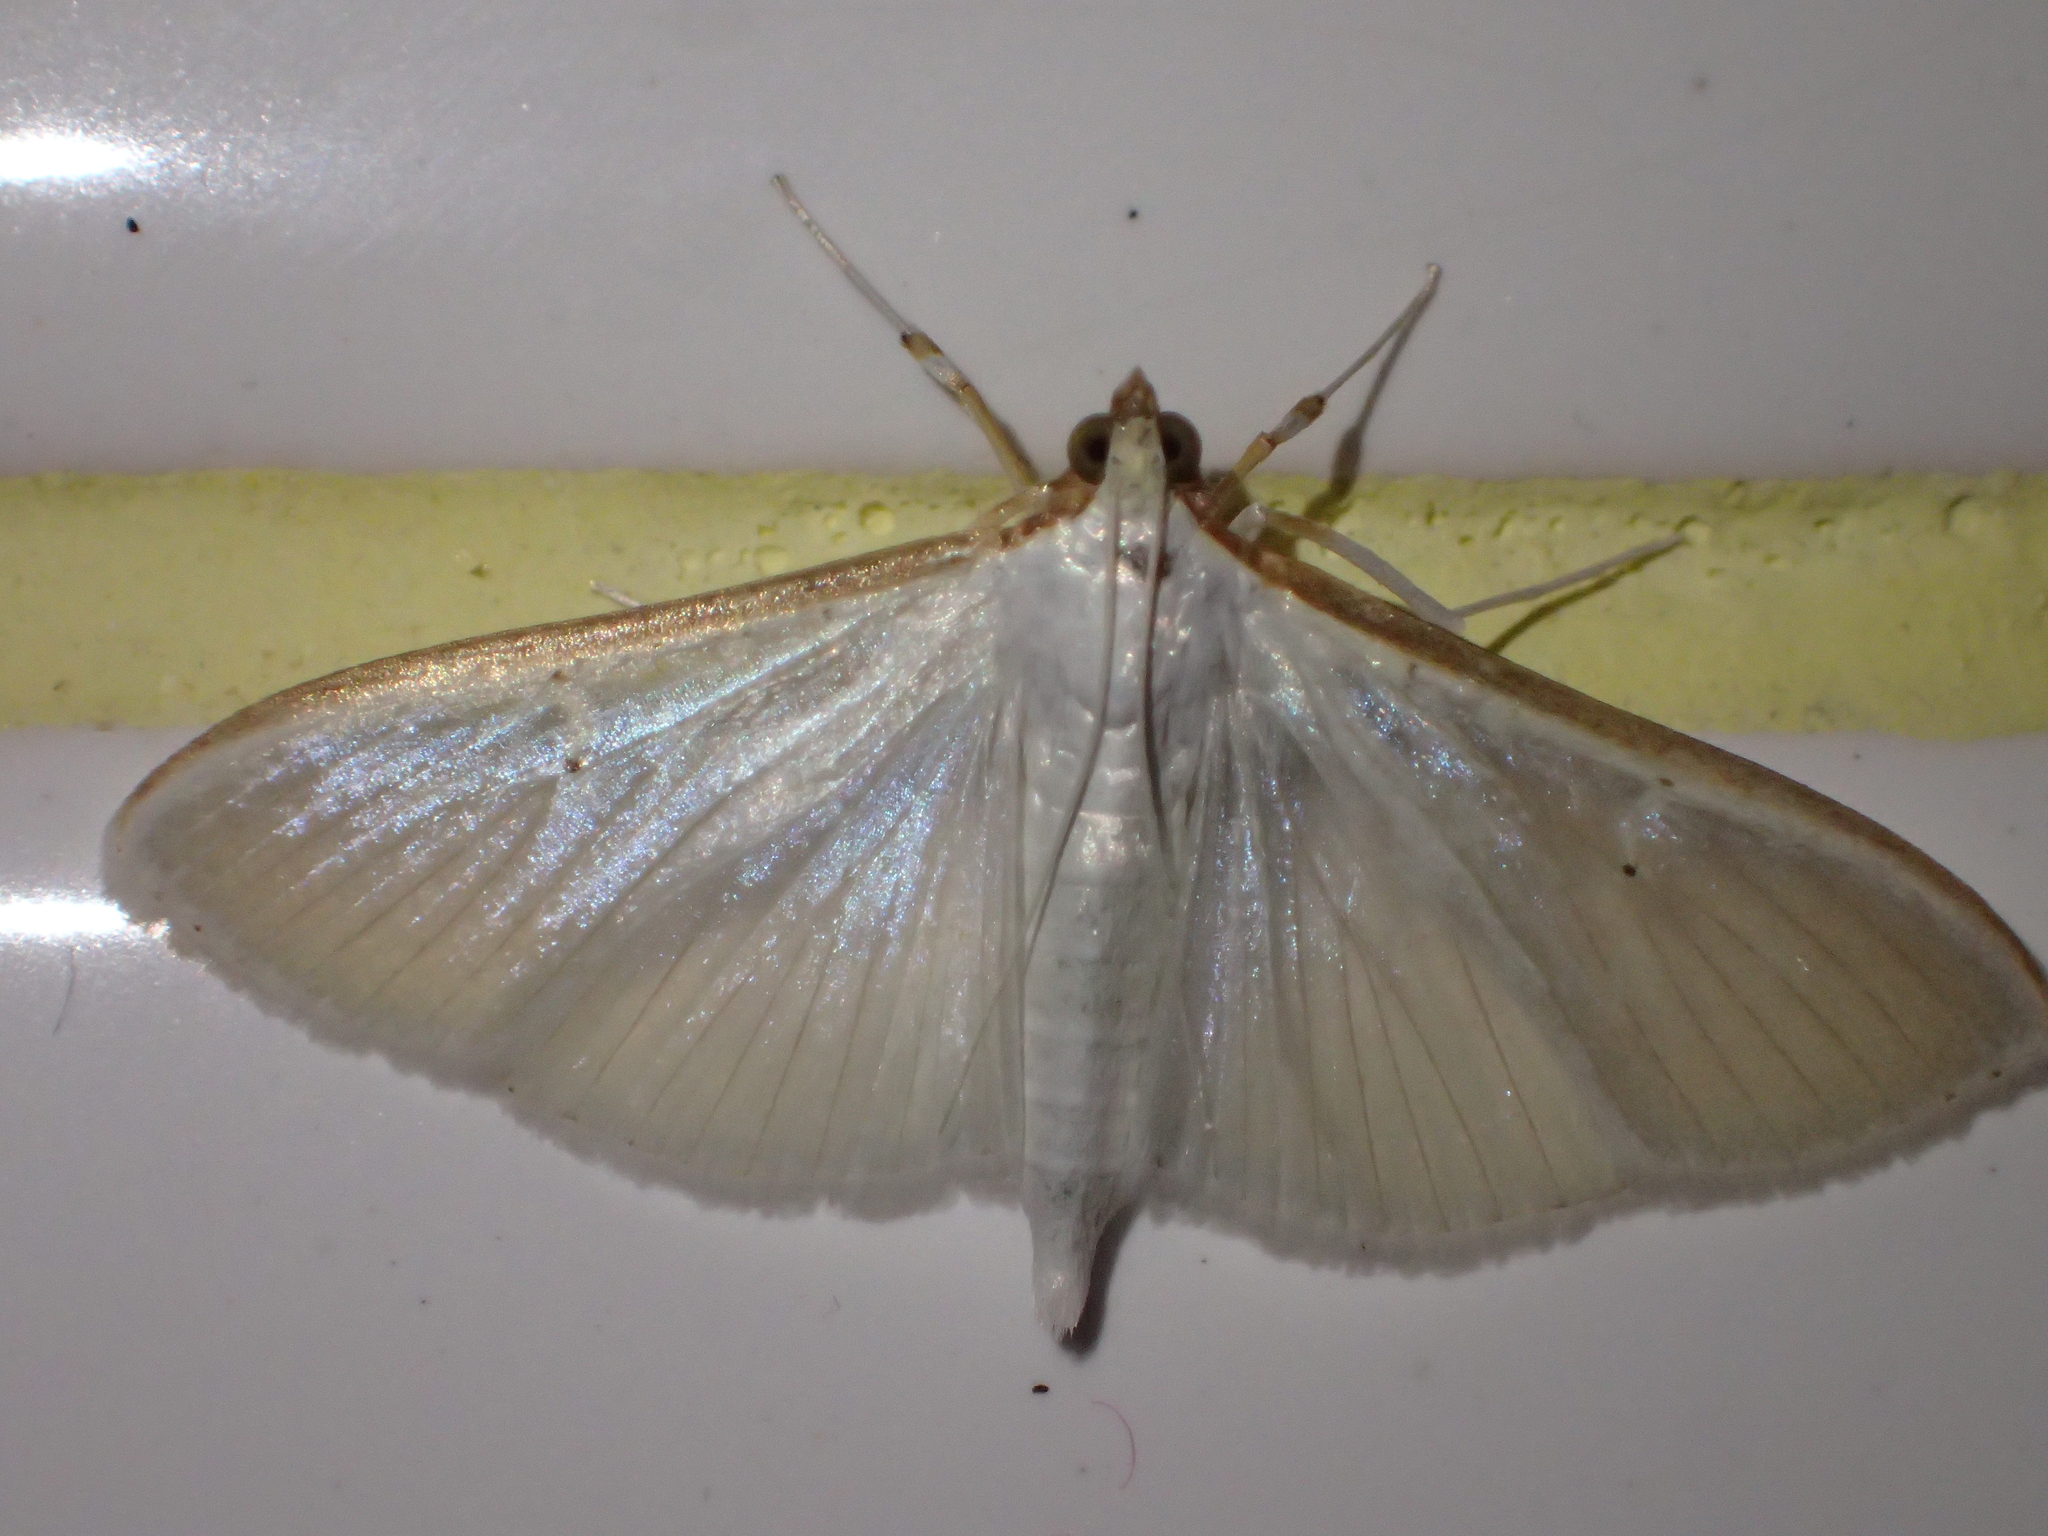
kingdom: Animalia
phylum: Arthropoda
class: Insecta
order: Lepidoptera
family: Crambidae
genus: Palpita
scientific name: Palpita vitrealis
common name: Olive-tree pearl
